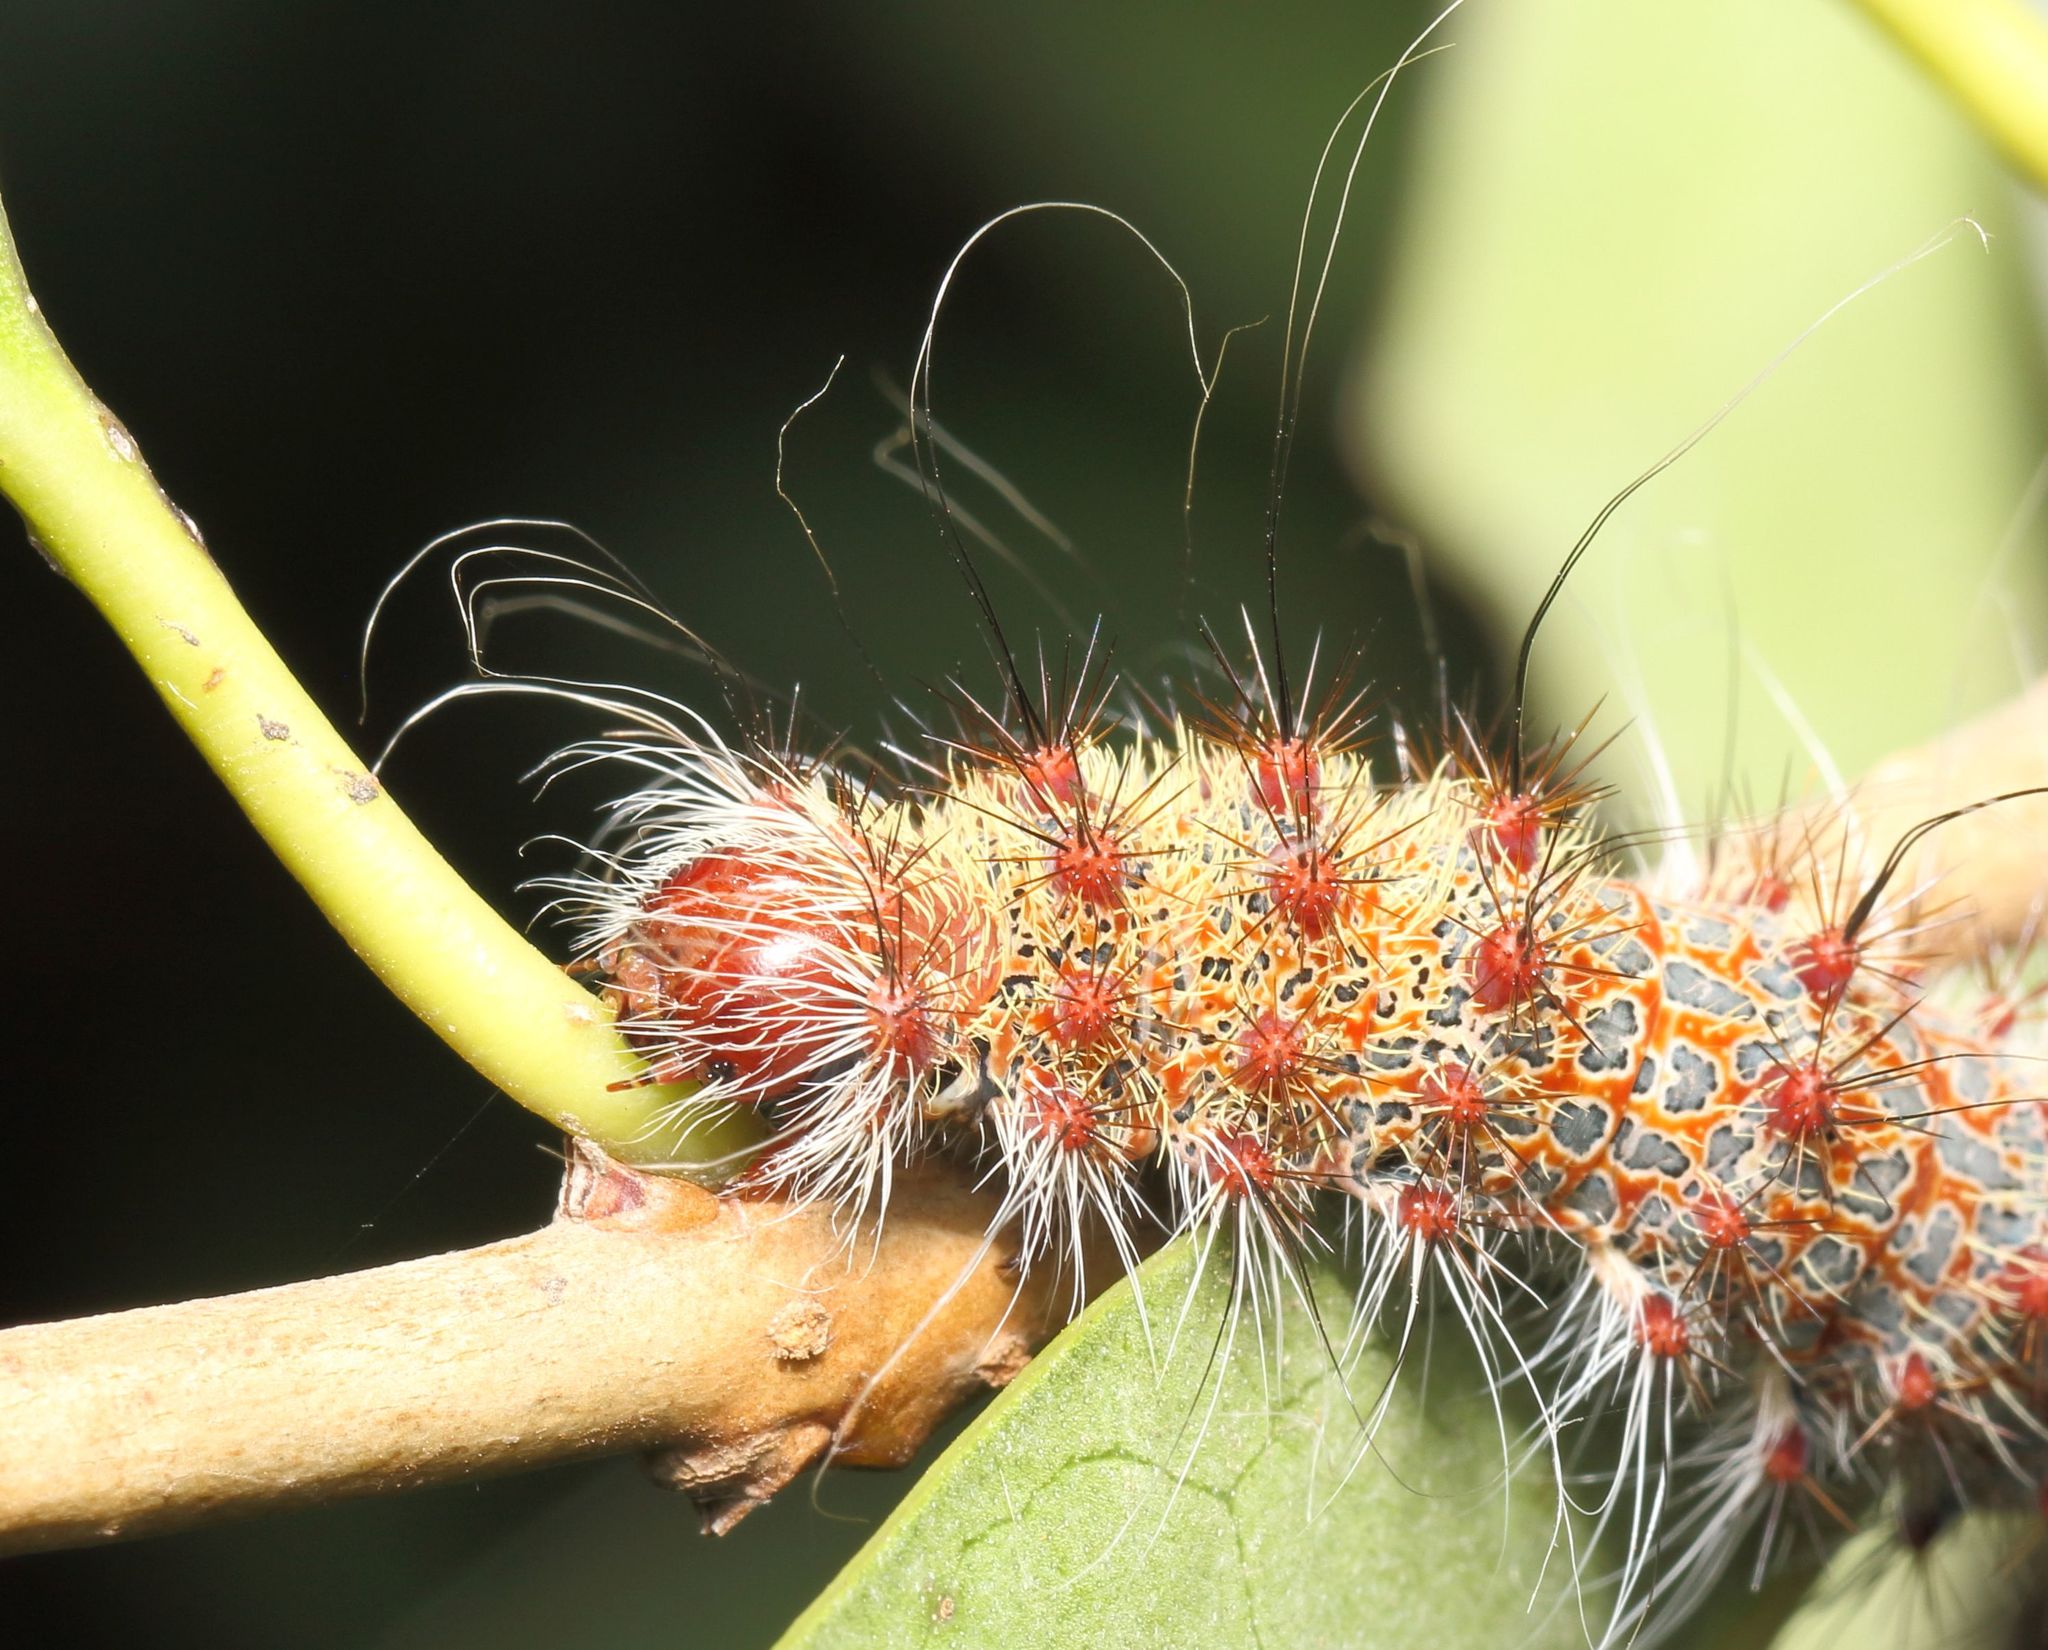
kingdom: Animalia
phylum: Arthropoda
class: Insecta
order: Lepidoptera
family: Saturniidae
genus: Holocerina
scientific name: Holocerina smilax
